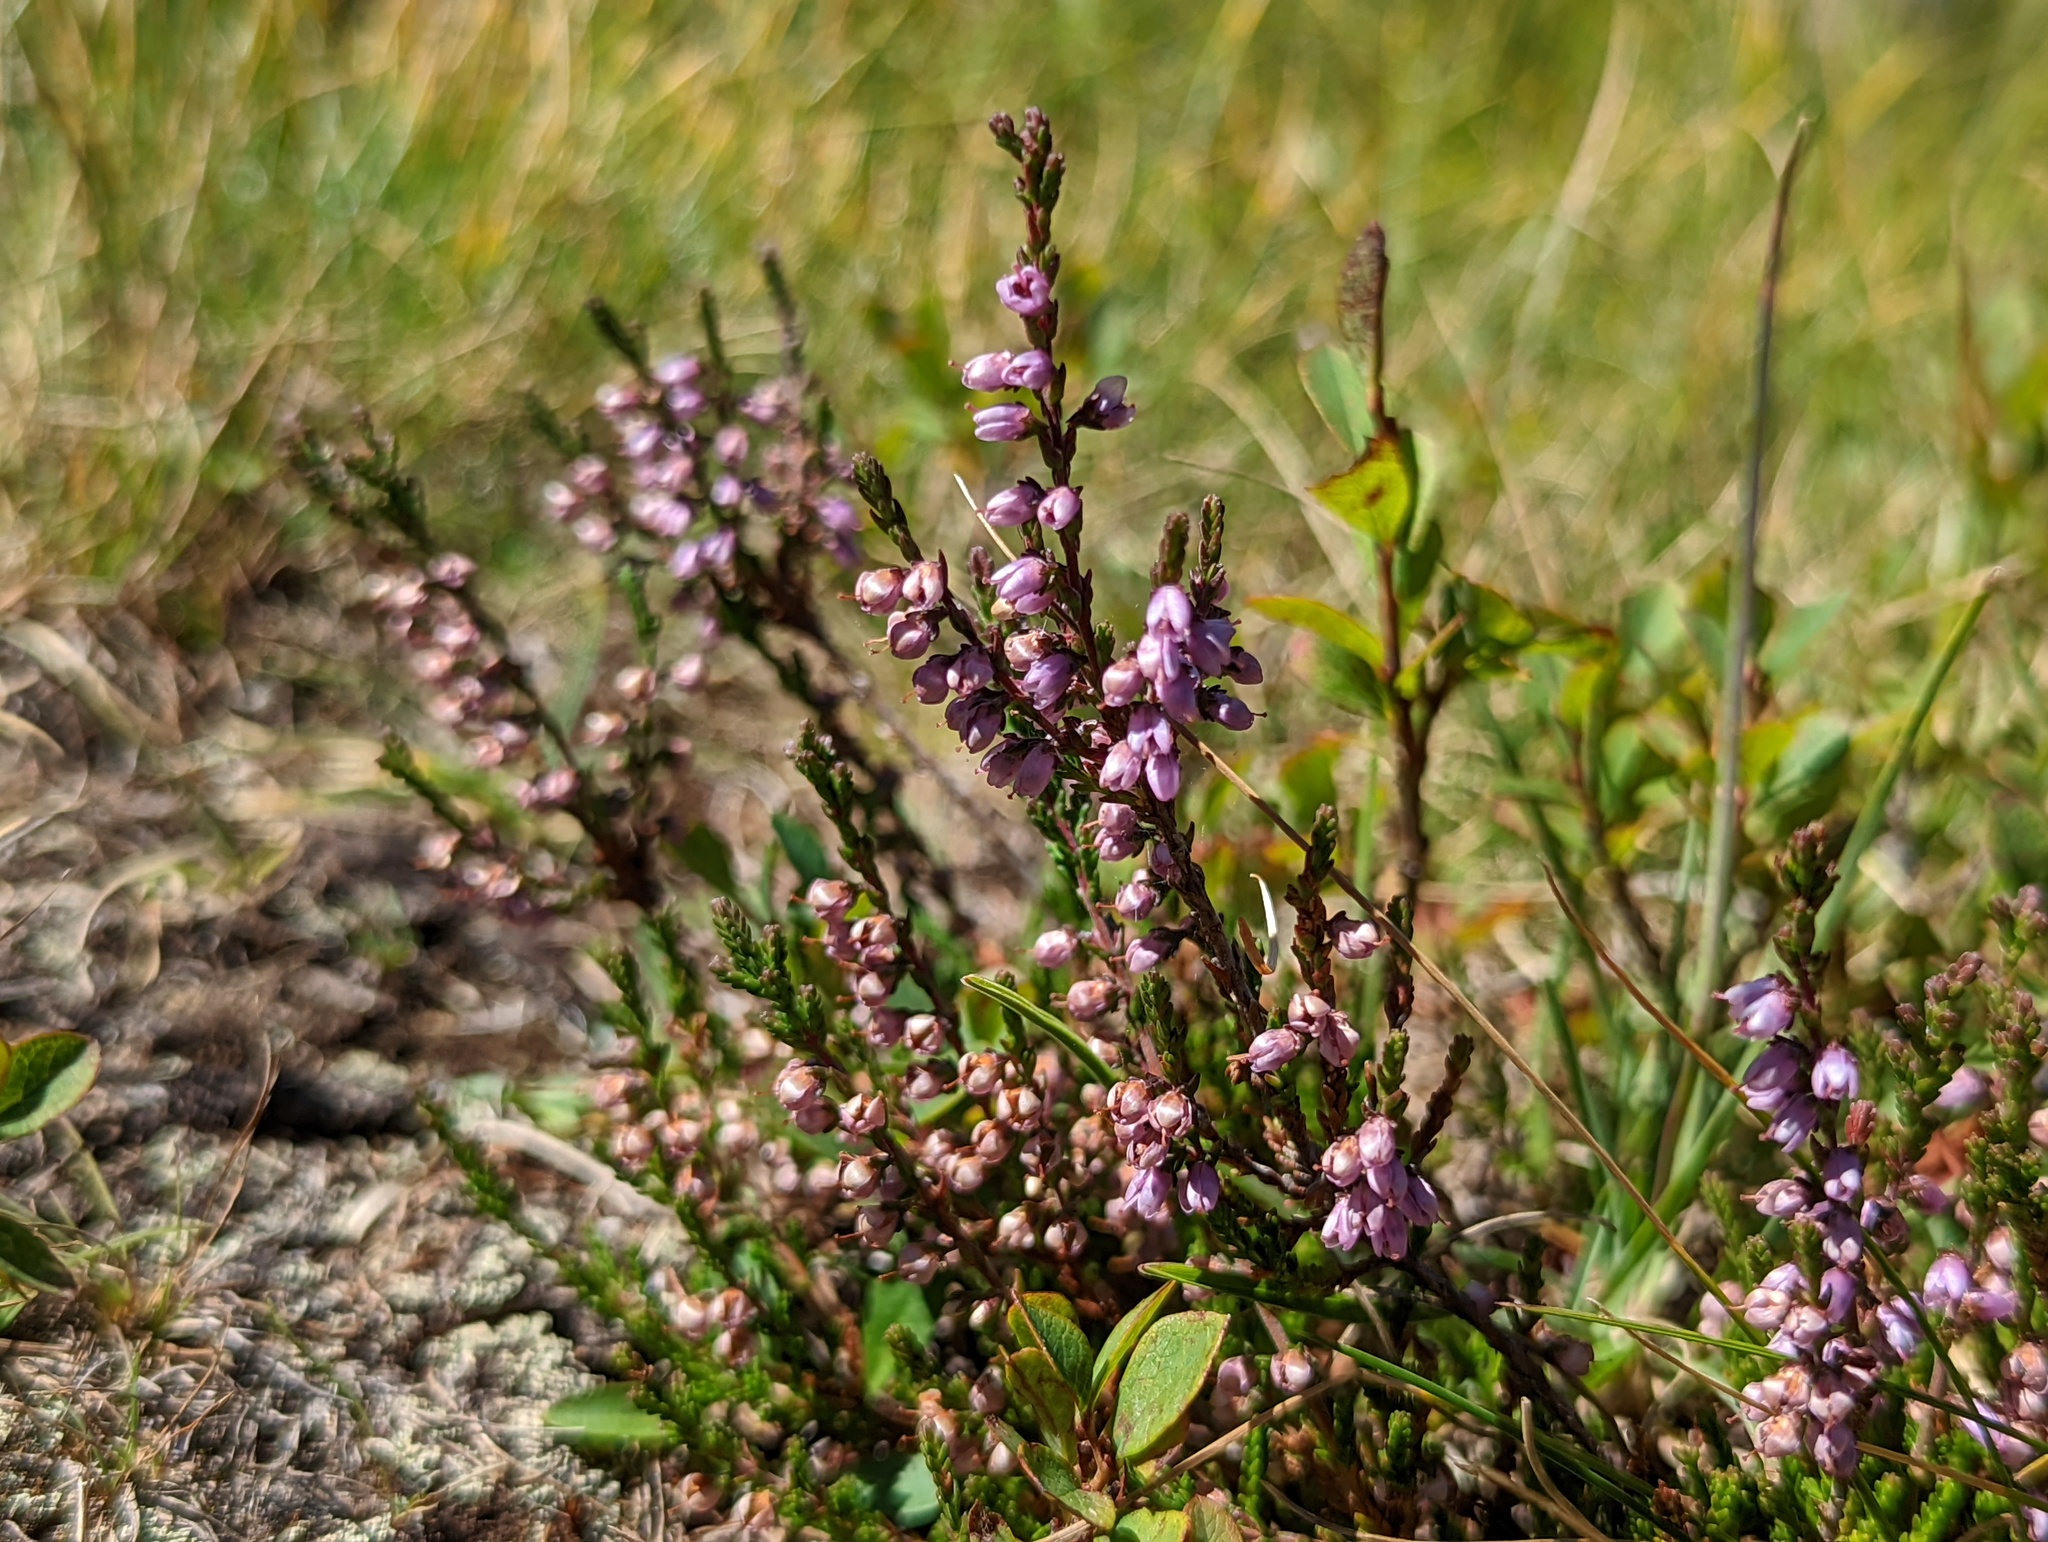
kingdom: Plantae
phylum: Tracheophyta
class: Magnoliopsida
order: Ericales
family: Ericaceae
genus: Calluna
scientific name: Calluna vulgaris
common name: Heather
